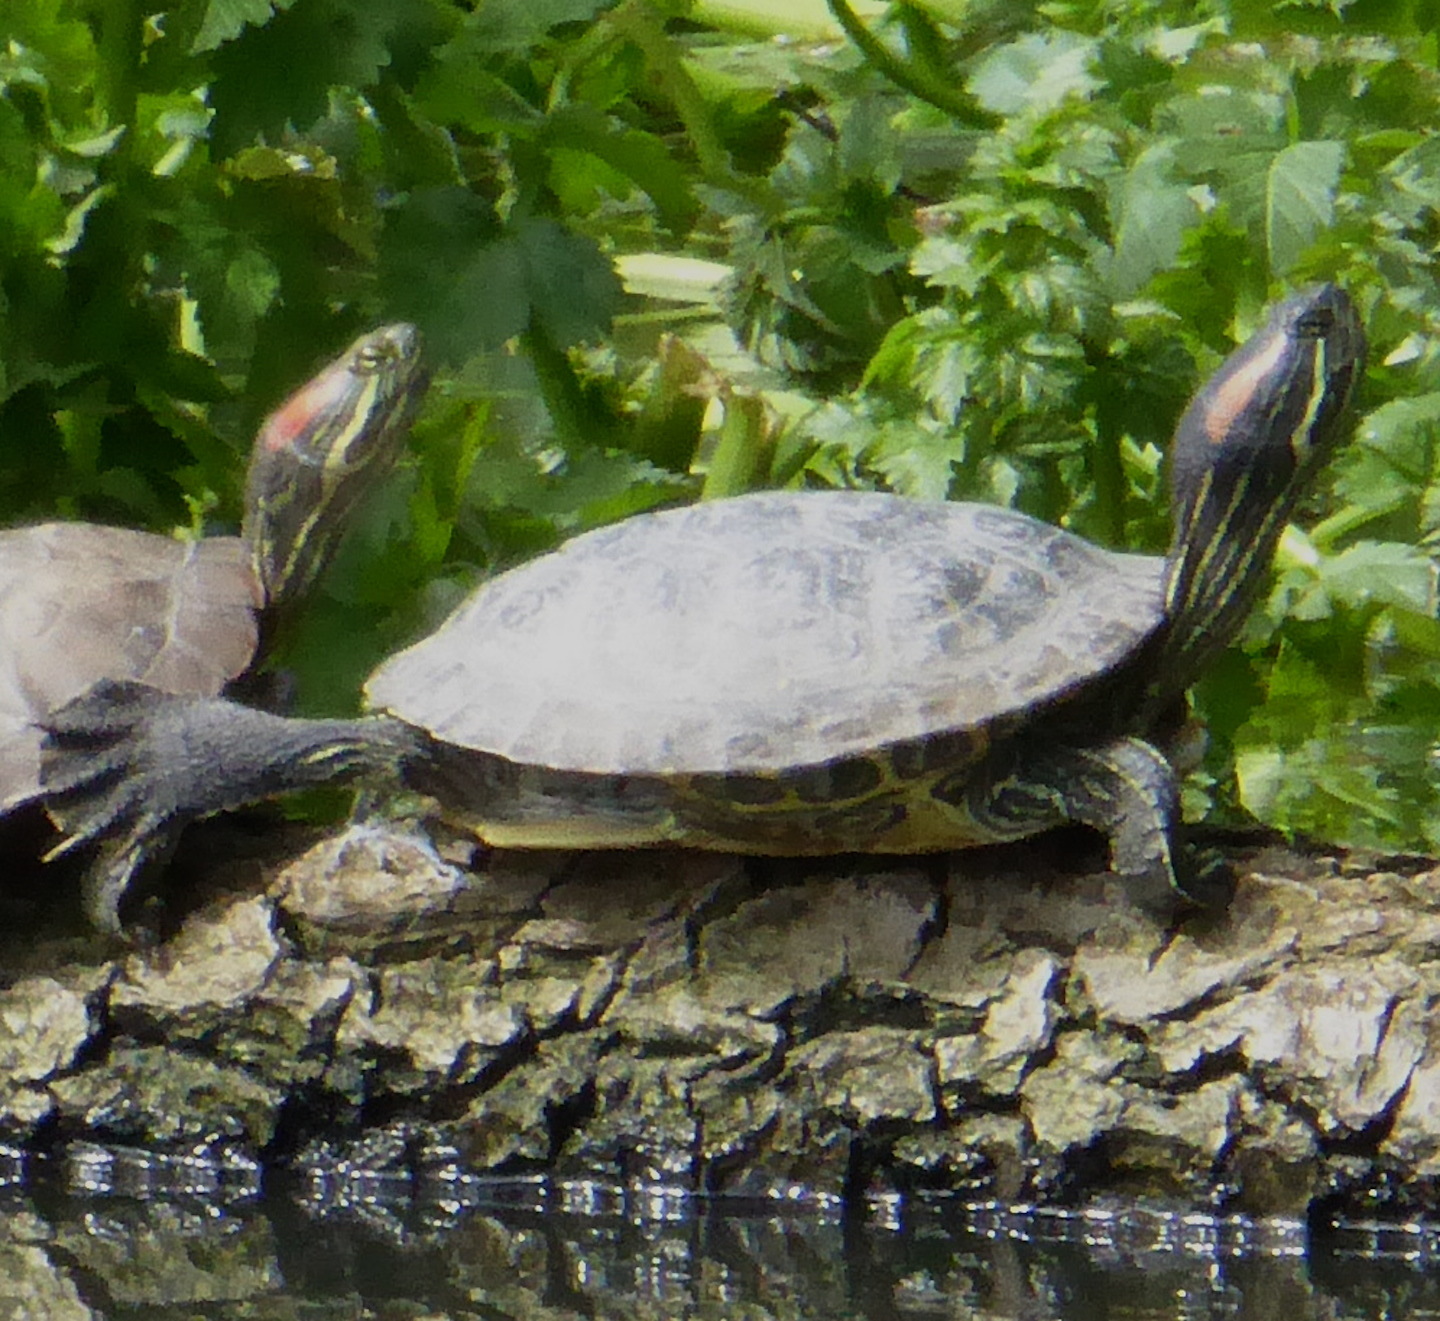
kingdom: Animalia
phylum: Chordata
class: Testudines
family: Emydidae
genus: Trachemys
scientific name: Trachemys scripta
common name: Slider
